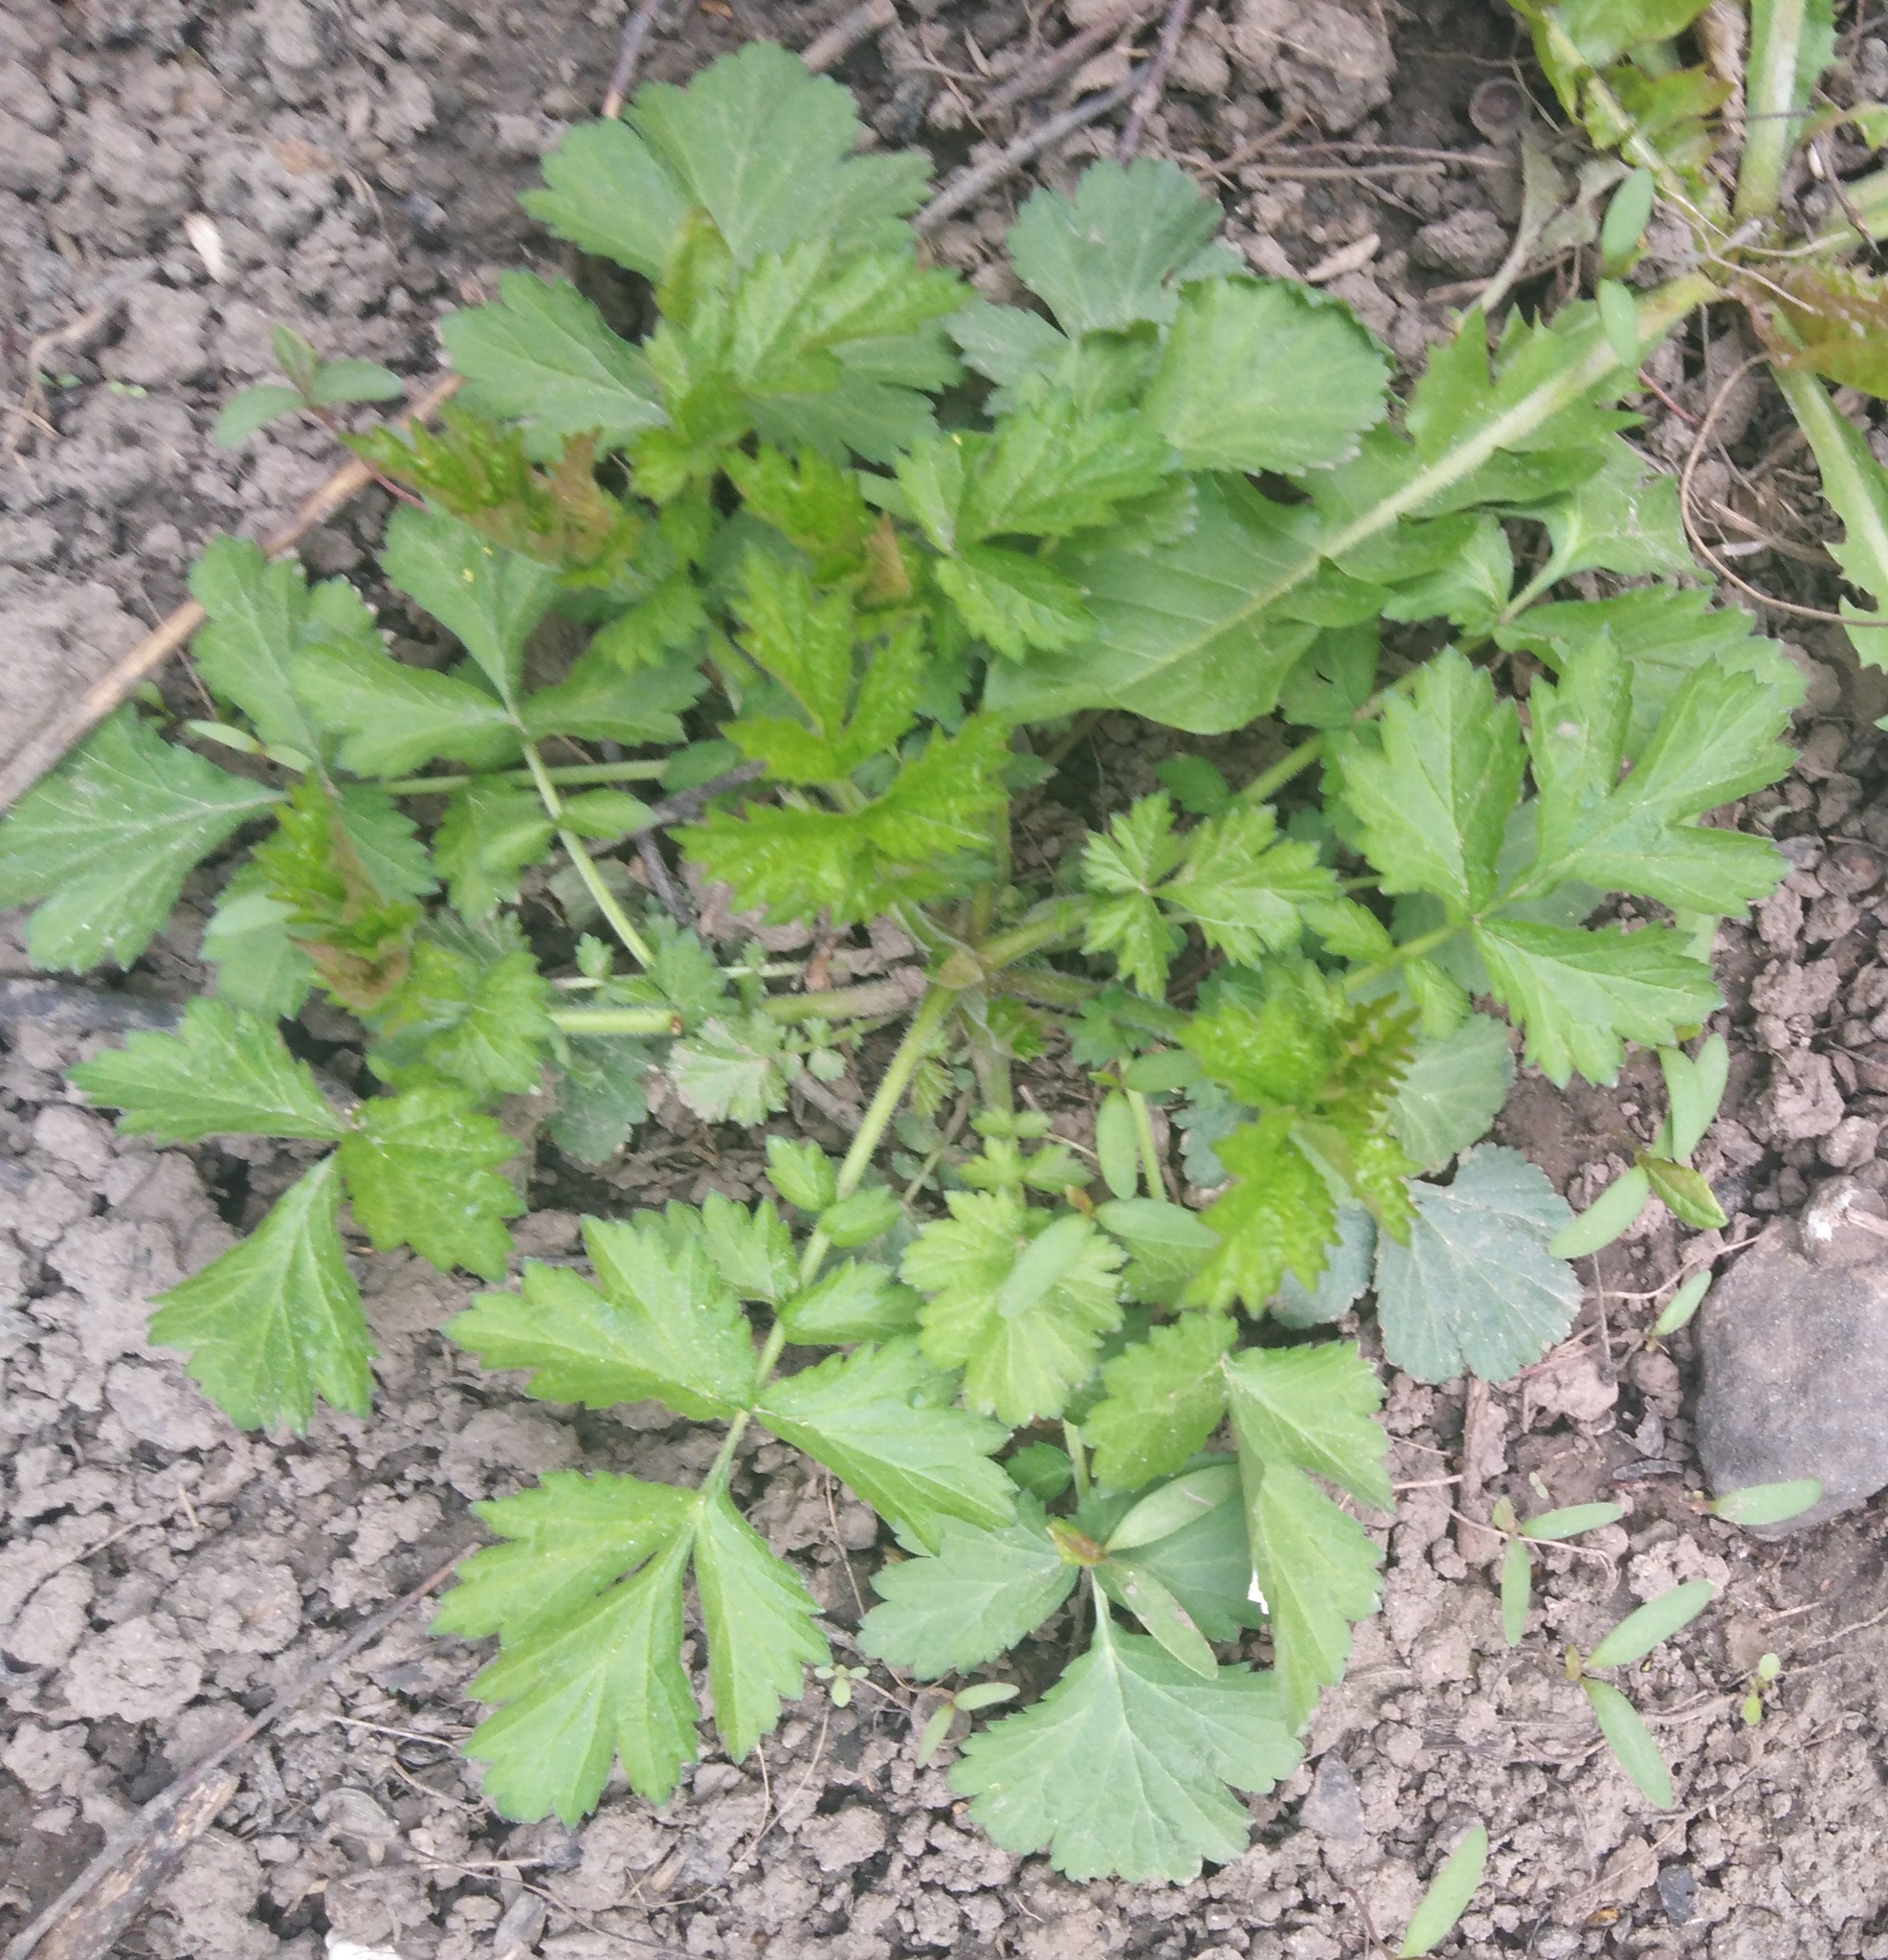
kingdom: Plantae
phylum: Tracheophyta
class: Magnoliopsida
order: Rosales
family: Rosaceae
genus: Geum
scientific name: Geum
